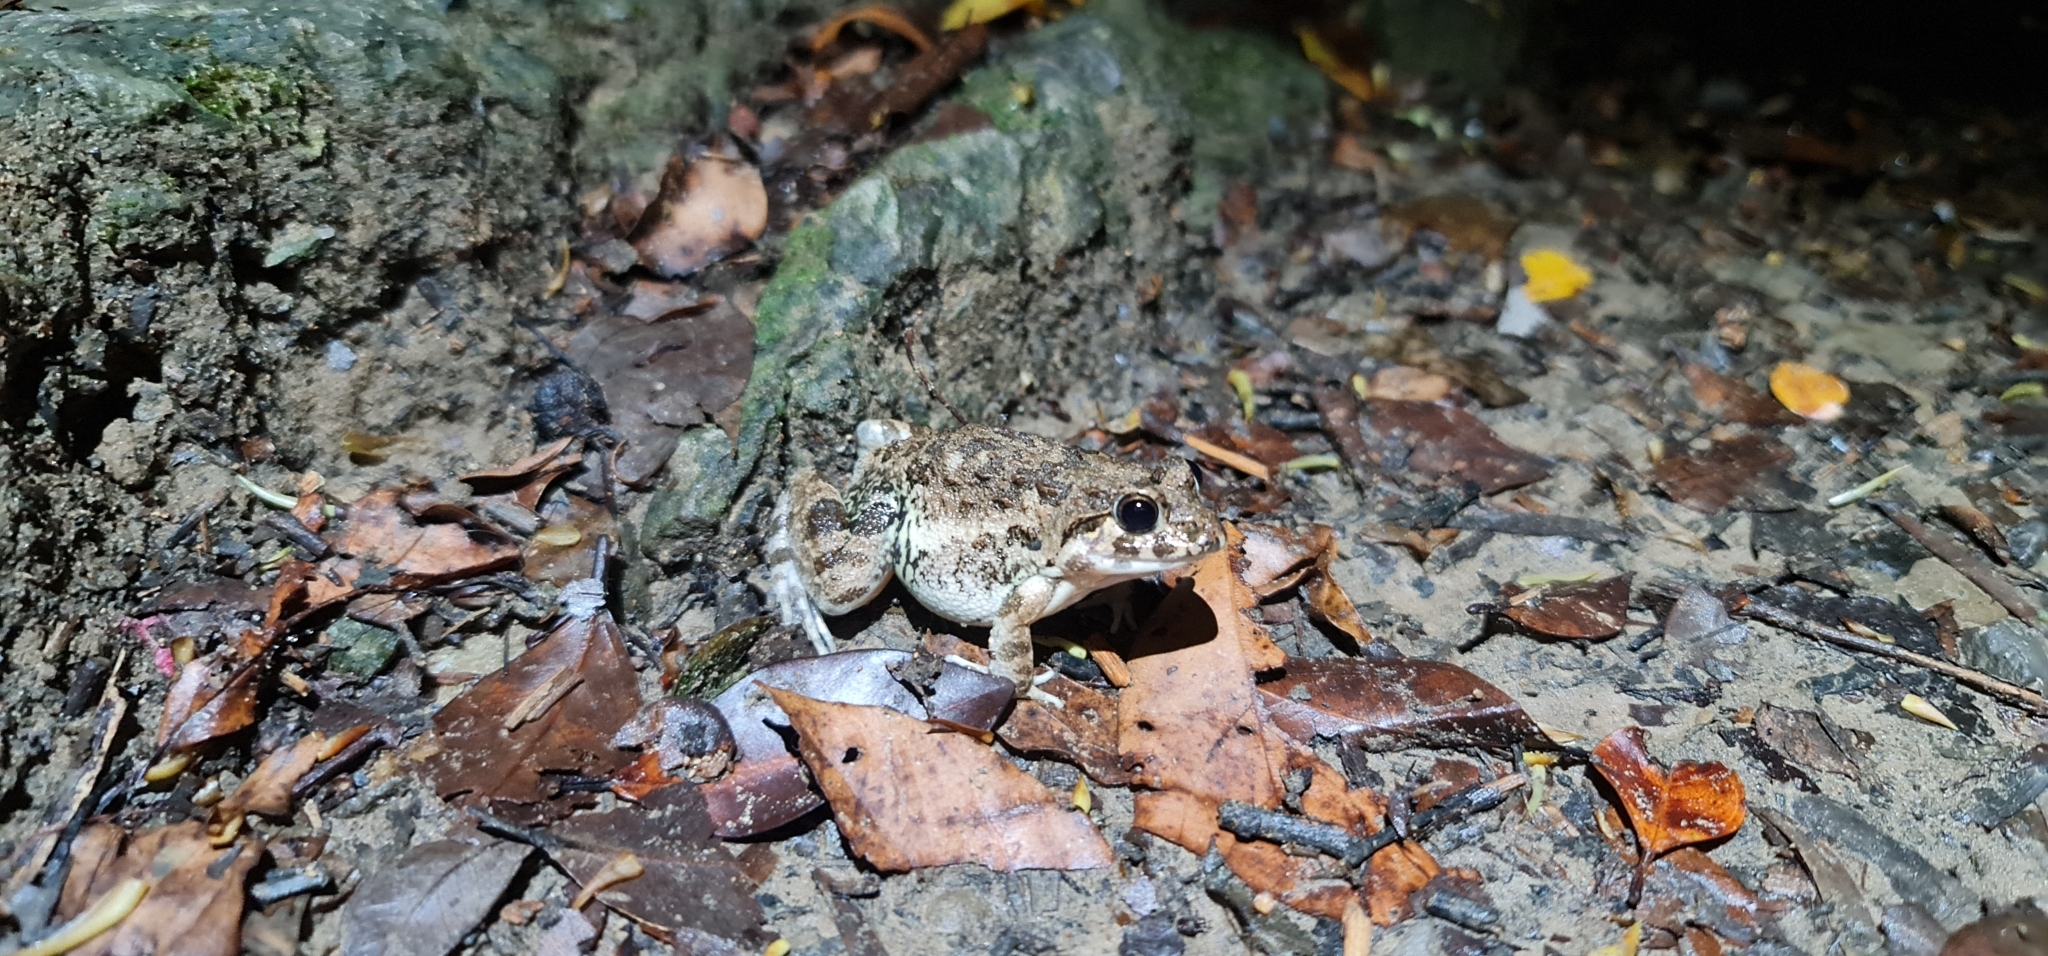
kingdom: Animalia
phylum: Chordata
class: Amphibia
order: Anura
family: Dicroglossidae
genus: Fejervarya
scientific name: Fejervarya limnocharis
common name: Asian grass frog/common pond frog/field frog/grass frog/indian rice frog
